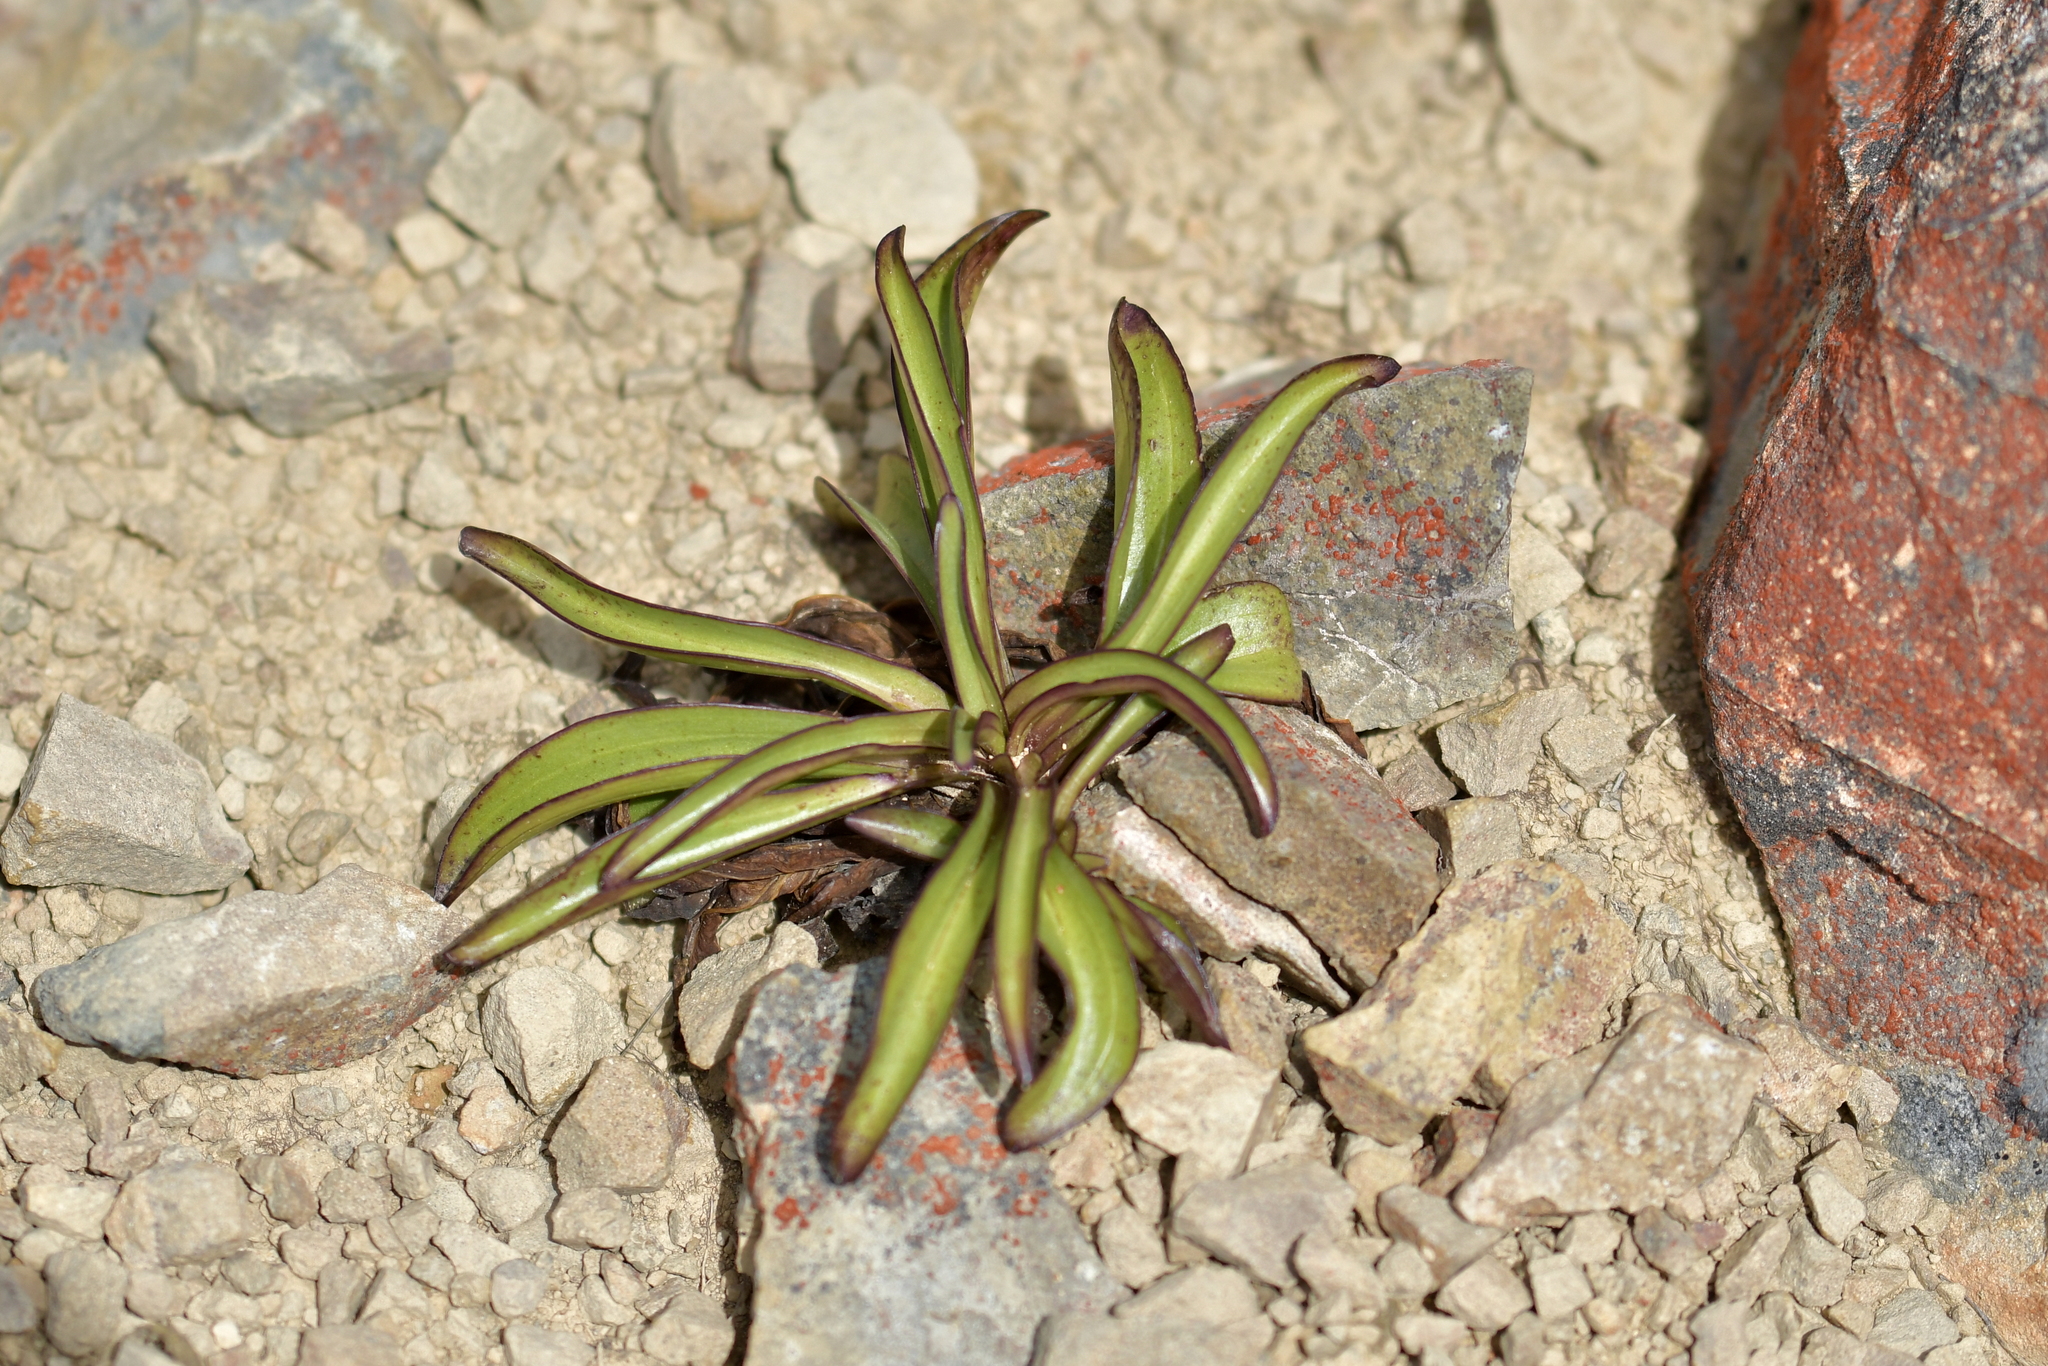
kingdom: Plantae
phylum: Tracheophyta
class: Magnoliopsida
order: Gentianales
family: Gentianaceae
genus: Gentianella
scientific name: Gentianella corymbifera
